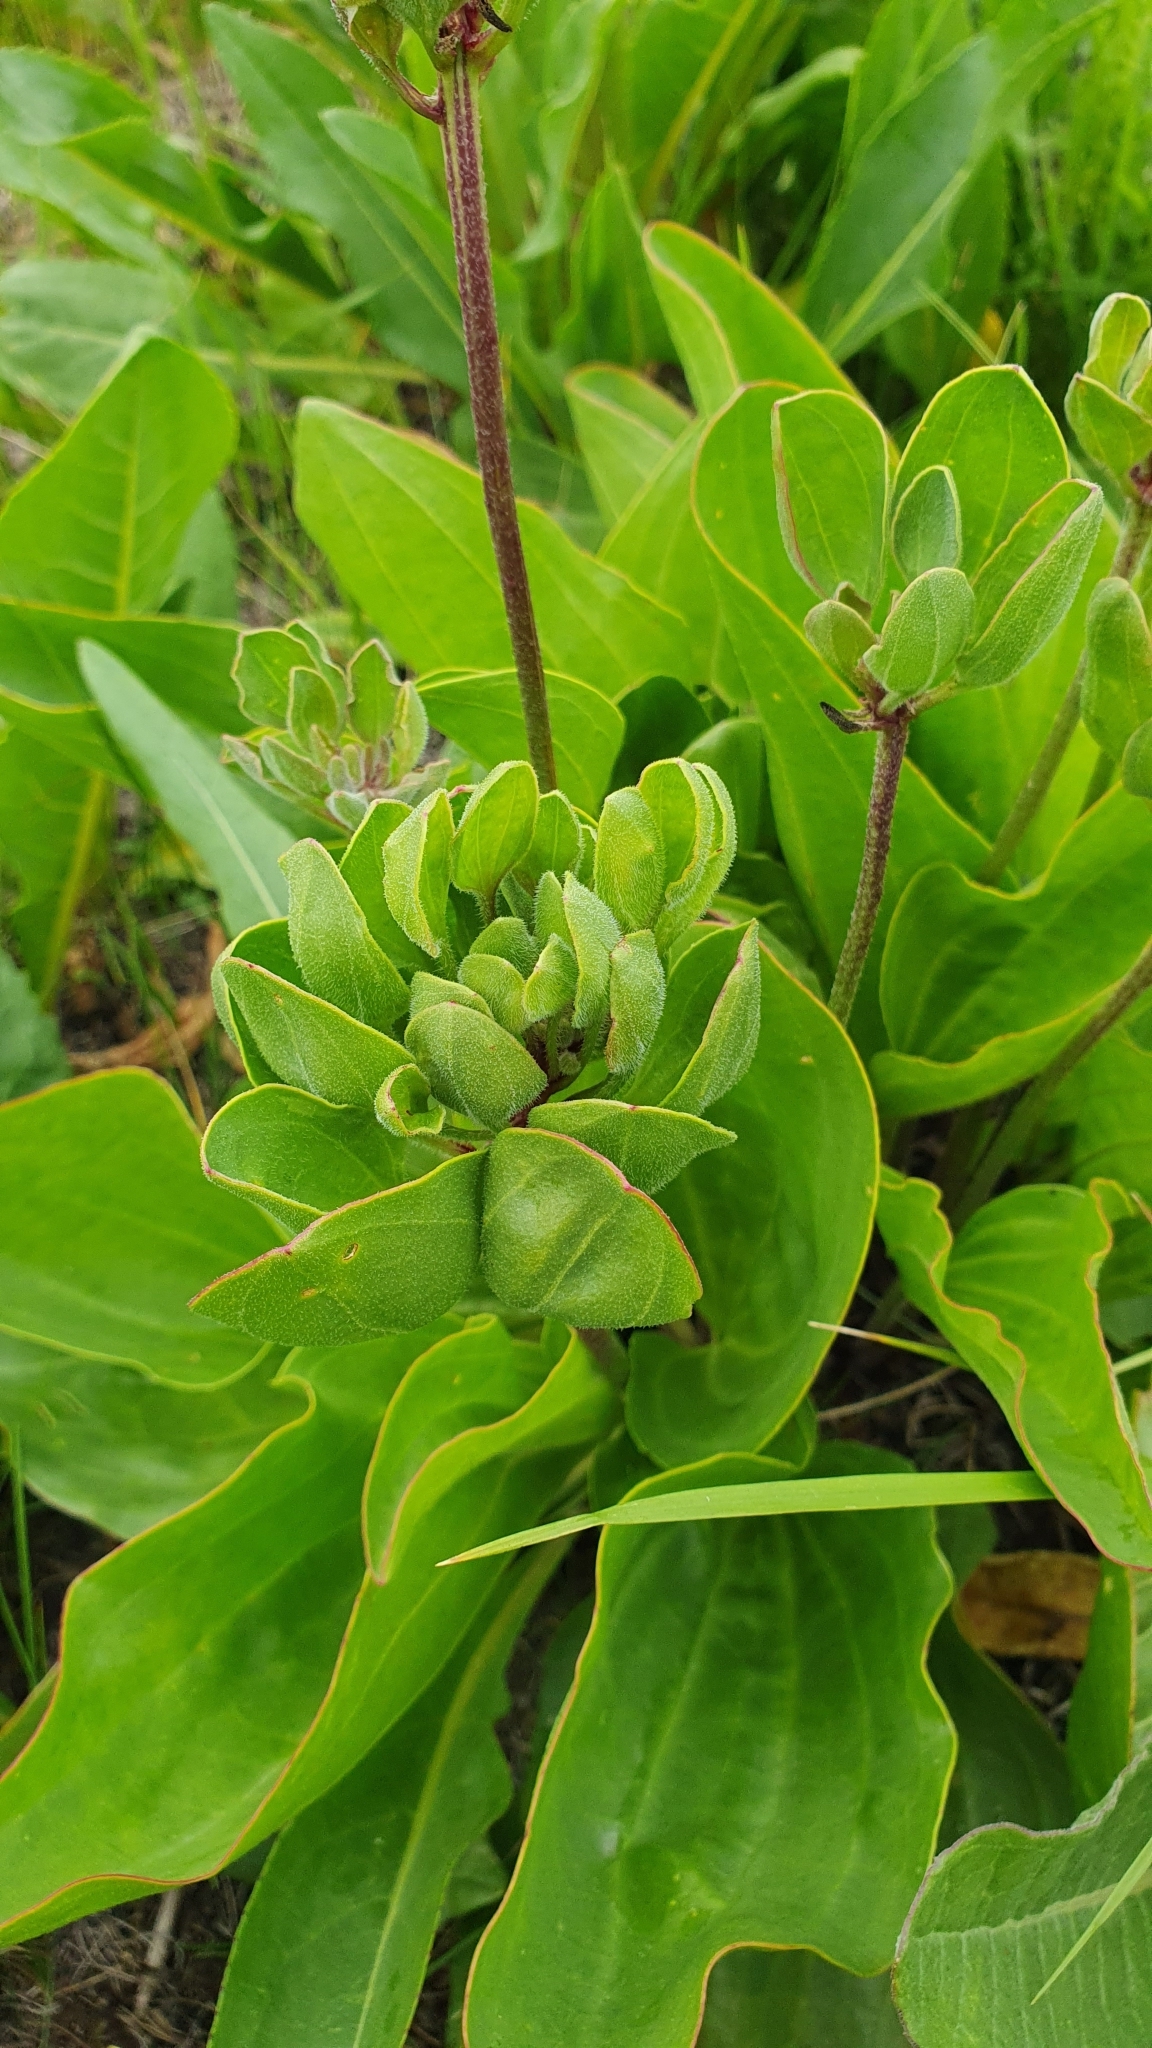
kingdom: Plantae
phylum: Tracheophyta
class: Magnoliopsida
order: Lamiales
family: Plantaginaceae
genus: Plantago
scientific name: Plantago cornuti
